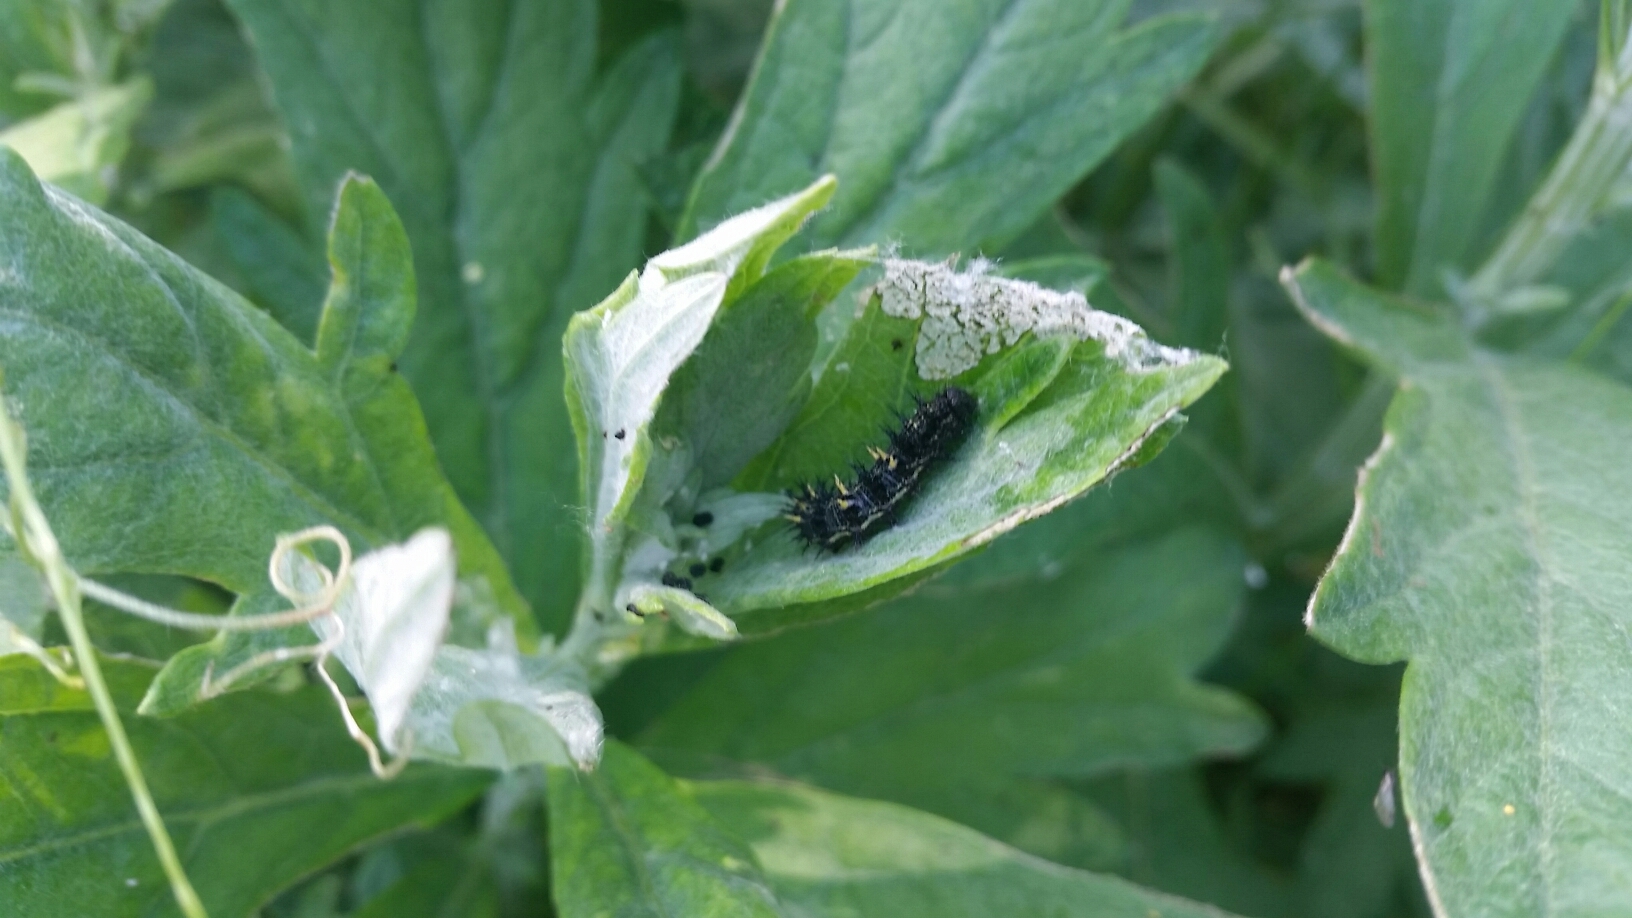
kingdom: Animalia
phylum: Arthropoda
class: Insecta
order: Lepidoptera
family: Nymphalidae
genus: Vanessa
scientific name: Vanessa cardui
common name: Painted lady
